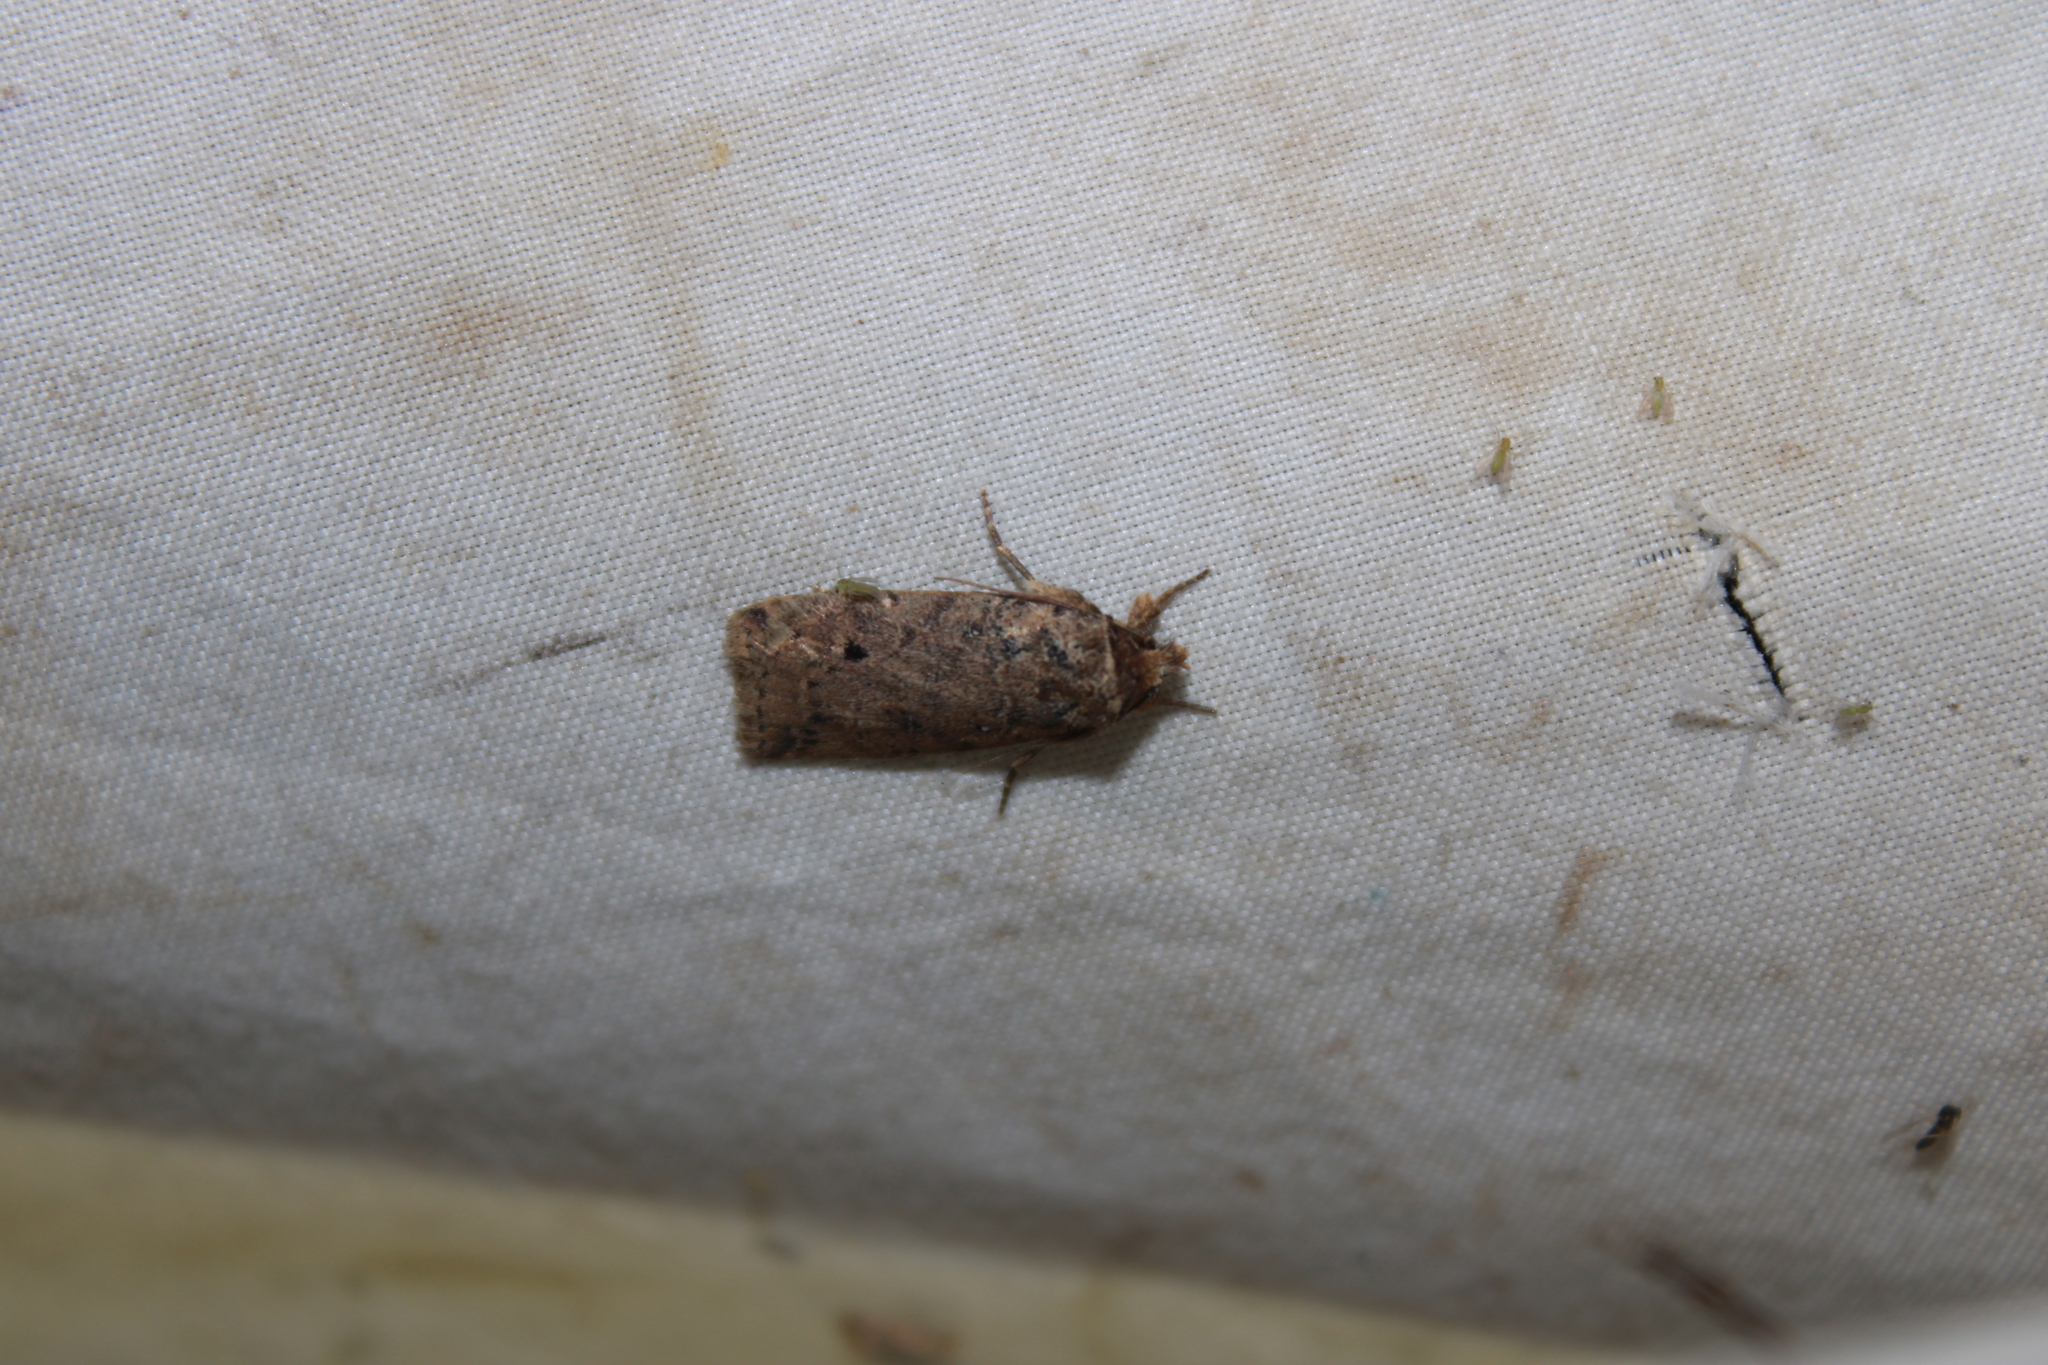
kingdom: Animalia
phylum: Arthropoda
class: Insecta
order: Lepidoptera
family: Noctuidae
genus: Janseodes
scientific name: Janseodes melanospila
